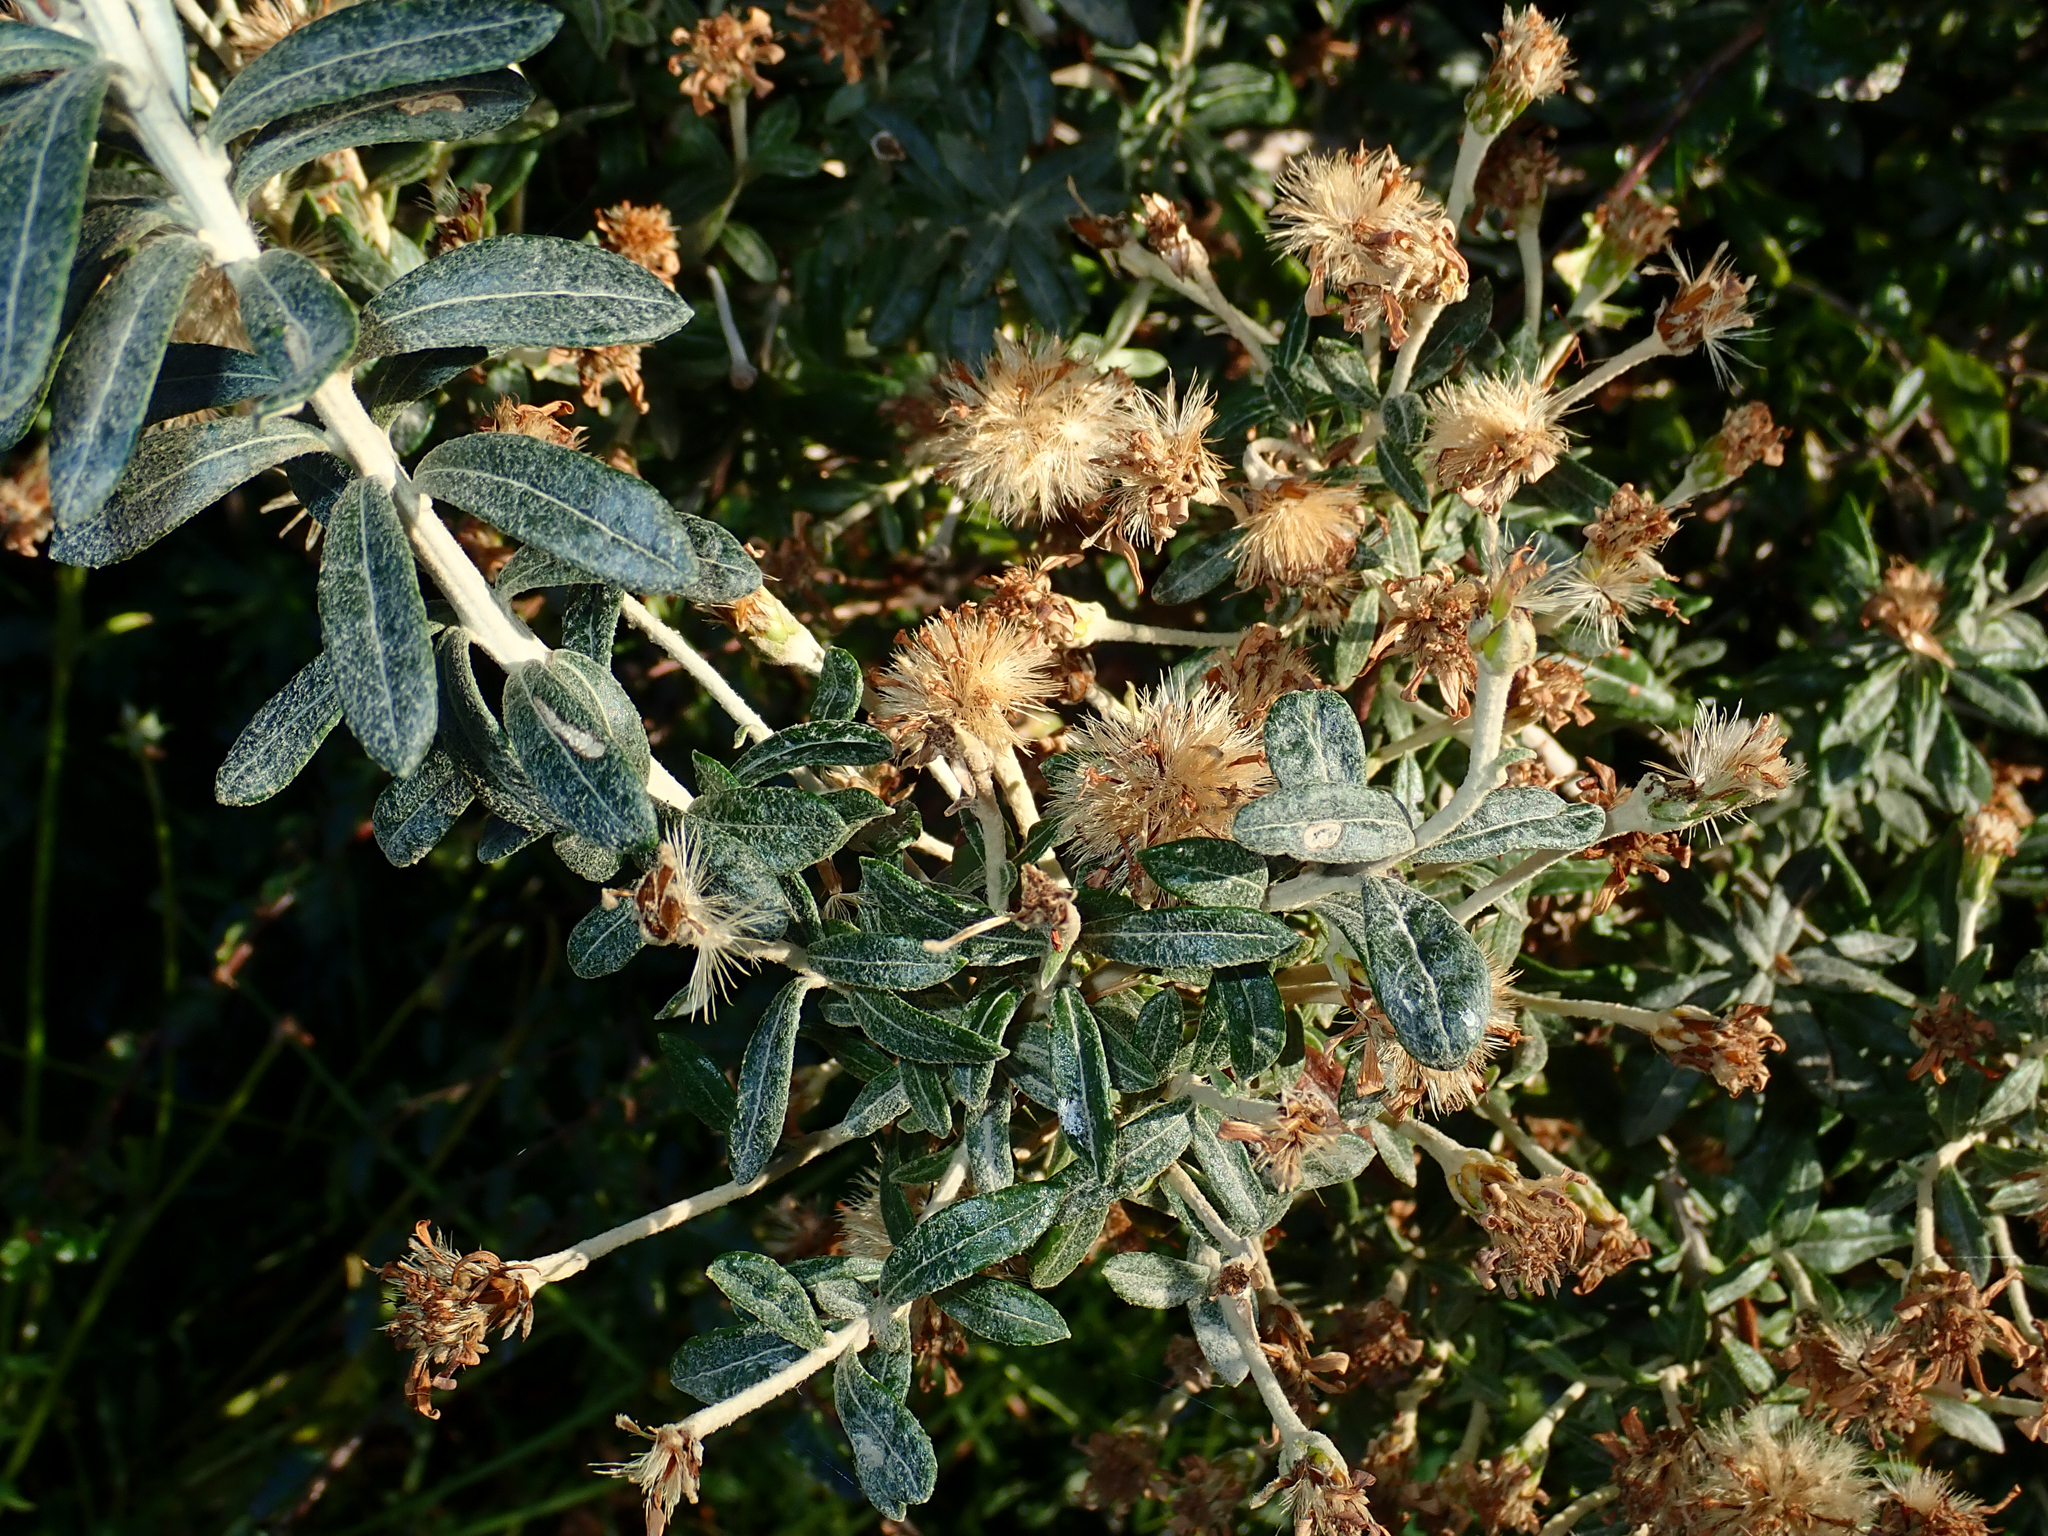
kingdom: Plantae
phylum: Tracheophyta
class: Magnoliopsida
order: Asterales
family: Asteraceae
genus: Chiliotrichum
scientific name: Chiliotrichum diffusum
